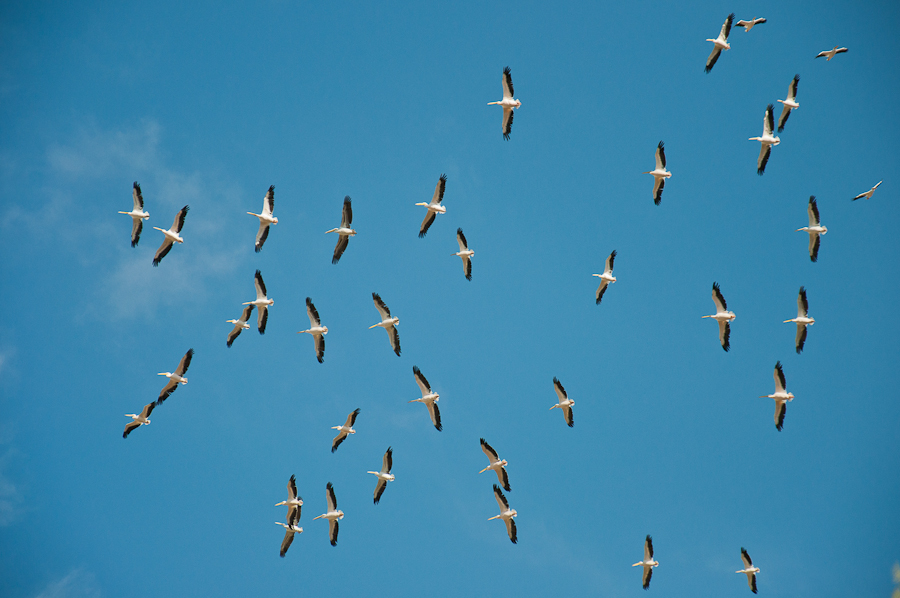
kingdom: Animalia
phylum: Chordata
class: Aves
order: Pelecaniformes
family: Pelecanidae
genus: Pelecanus
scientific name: Pelecanus onocrotalus
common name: Great white pelican
